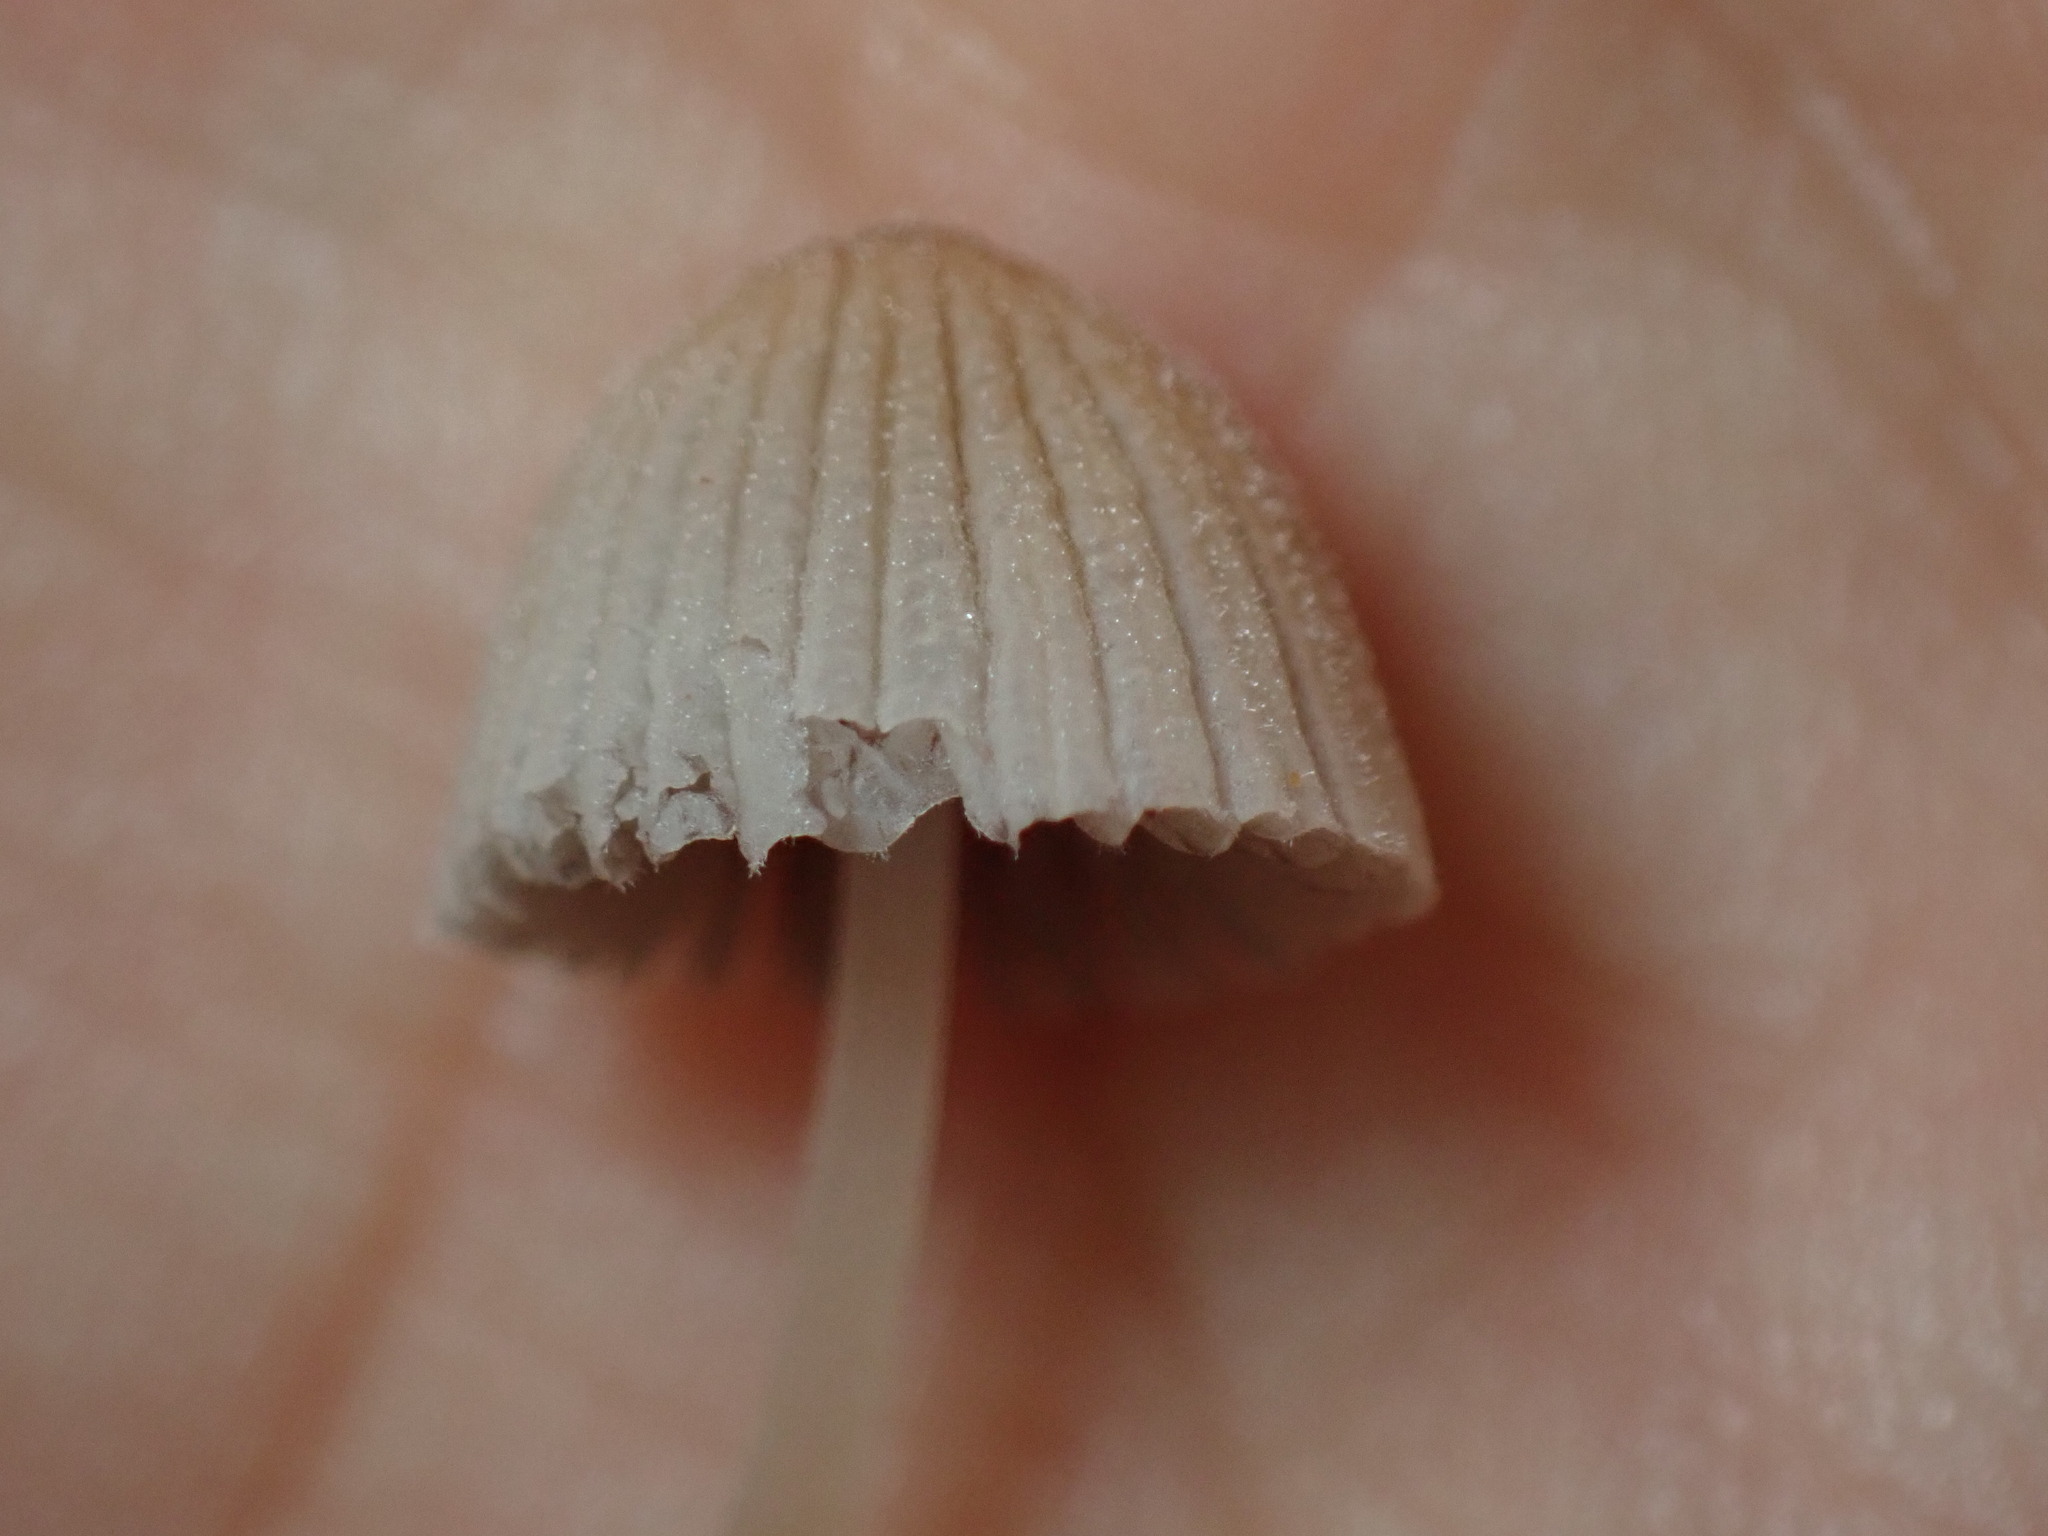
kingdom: Fungi
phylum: Basidiomycota
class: Agaricomycetes
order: Agaricales
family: Psathyrellaceae
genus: Coprinellus
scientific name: Coprinellus disseminatus
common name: Fairies' bonnets
